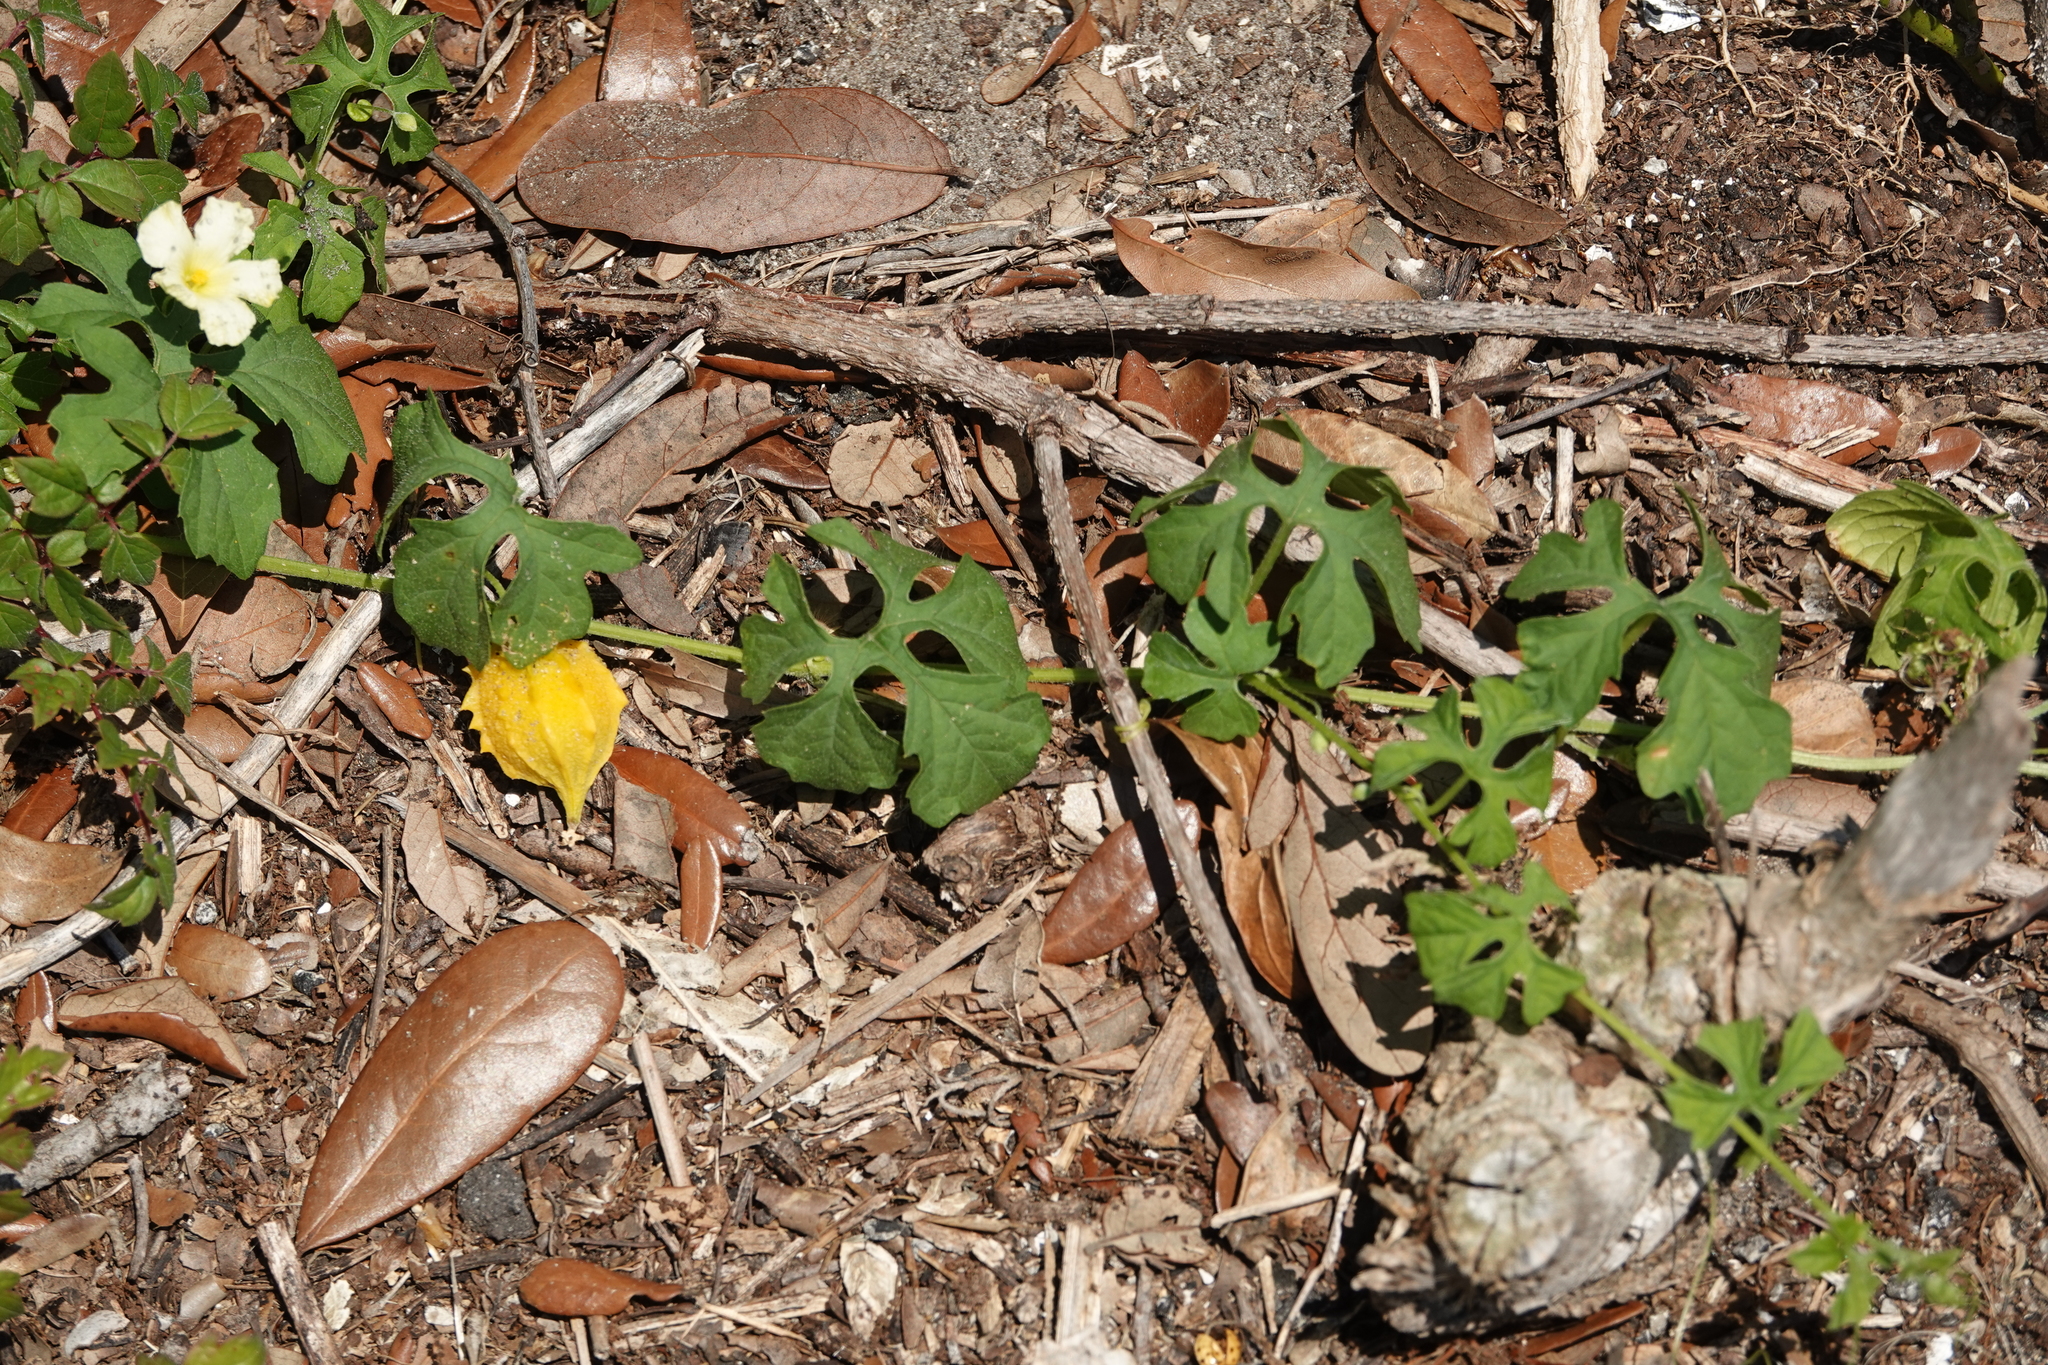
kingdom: Plantae
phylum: Tracheophyta
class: Magnoliopsida
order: Cucurbitales
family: Cucurbitaceae
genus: Momordica
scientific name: Momordica charantia
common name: Balsampear
